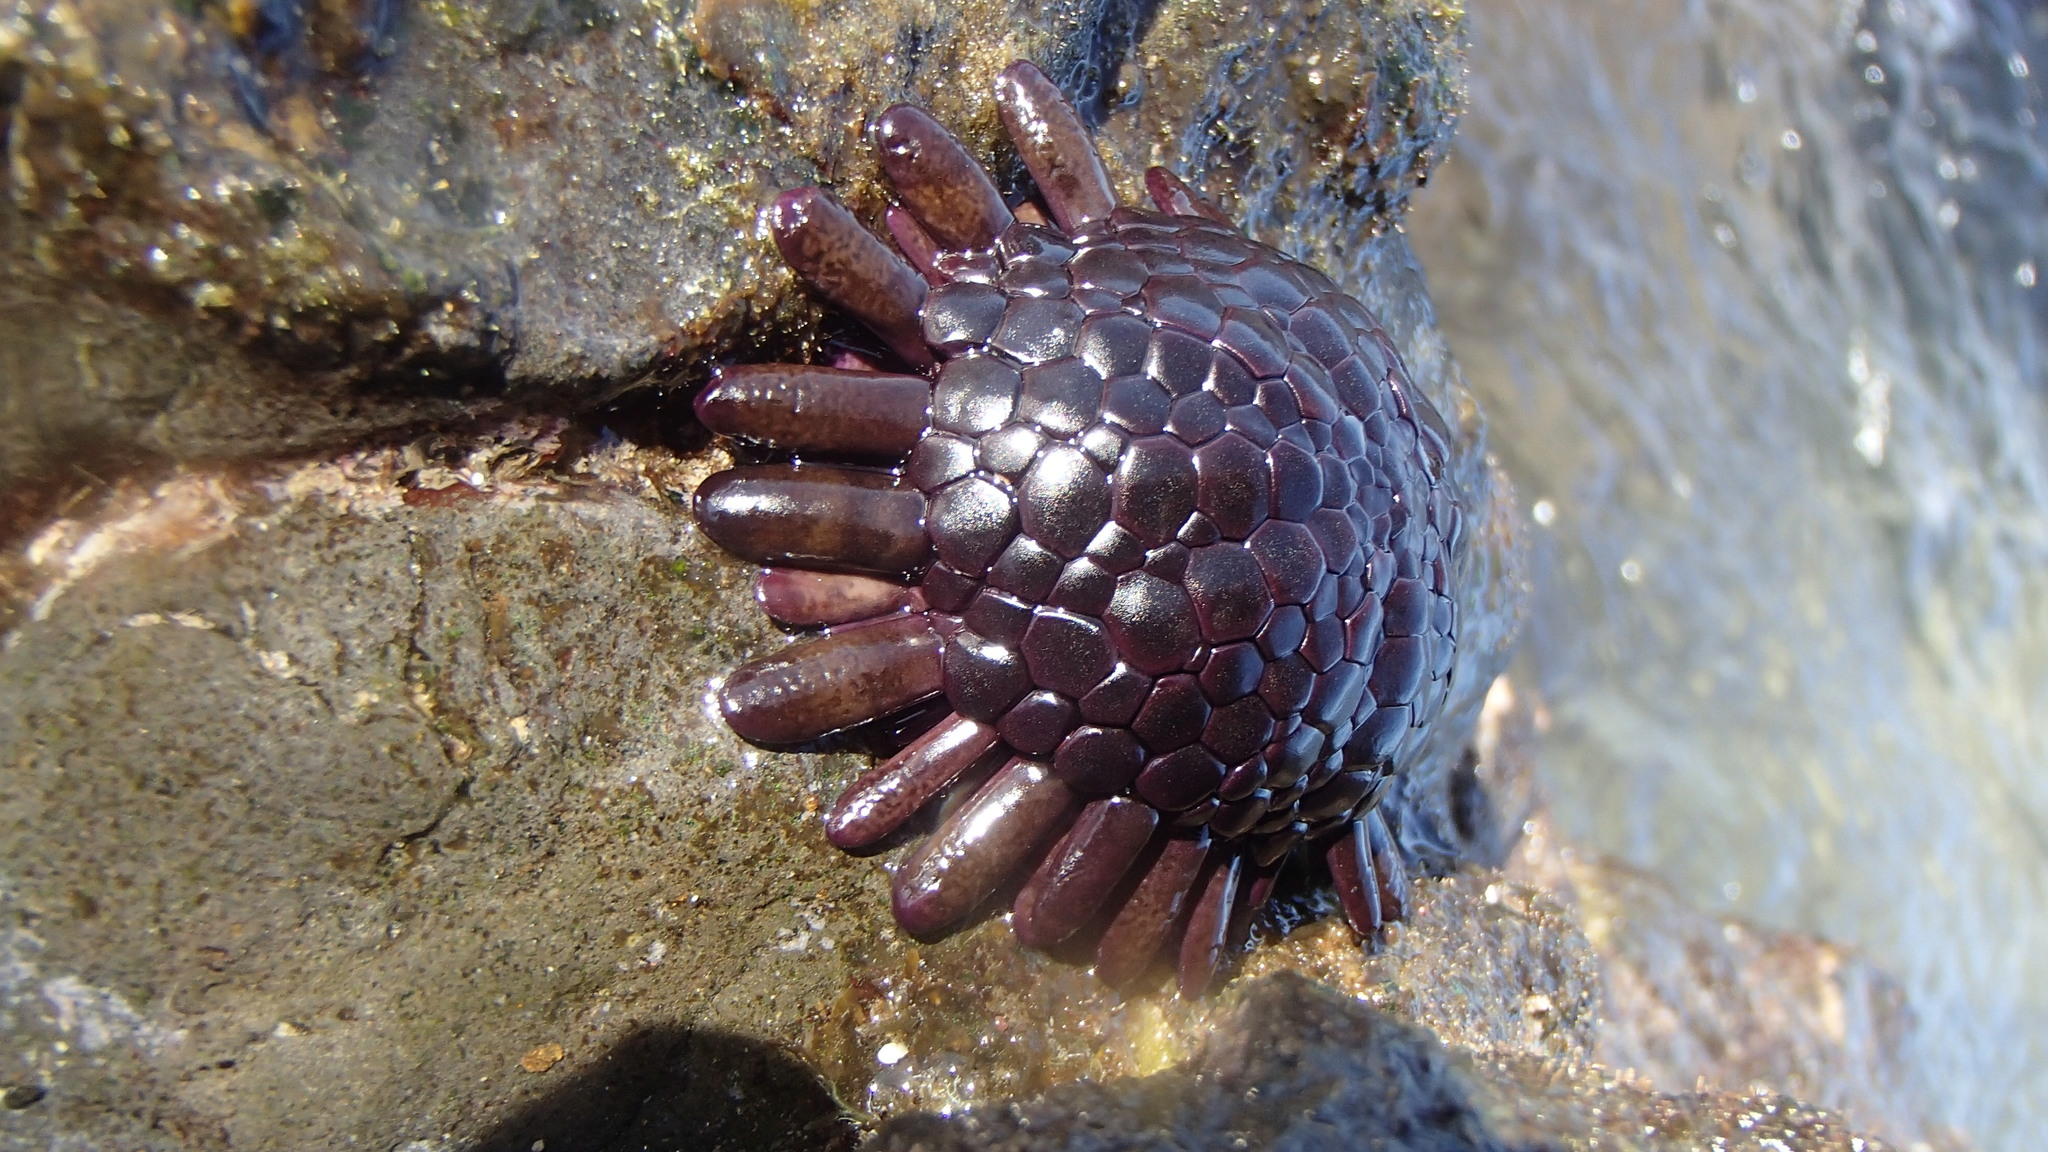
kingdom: Animalia
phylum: Echinodermata
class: Echinoidea
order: Camarodonta
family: Echinometridae
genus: Colobocentrotus
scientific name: Colobocentrotus atratus
